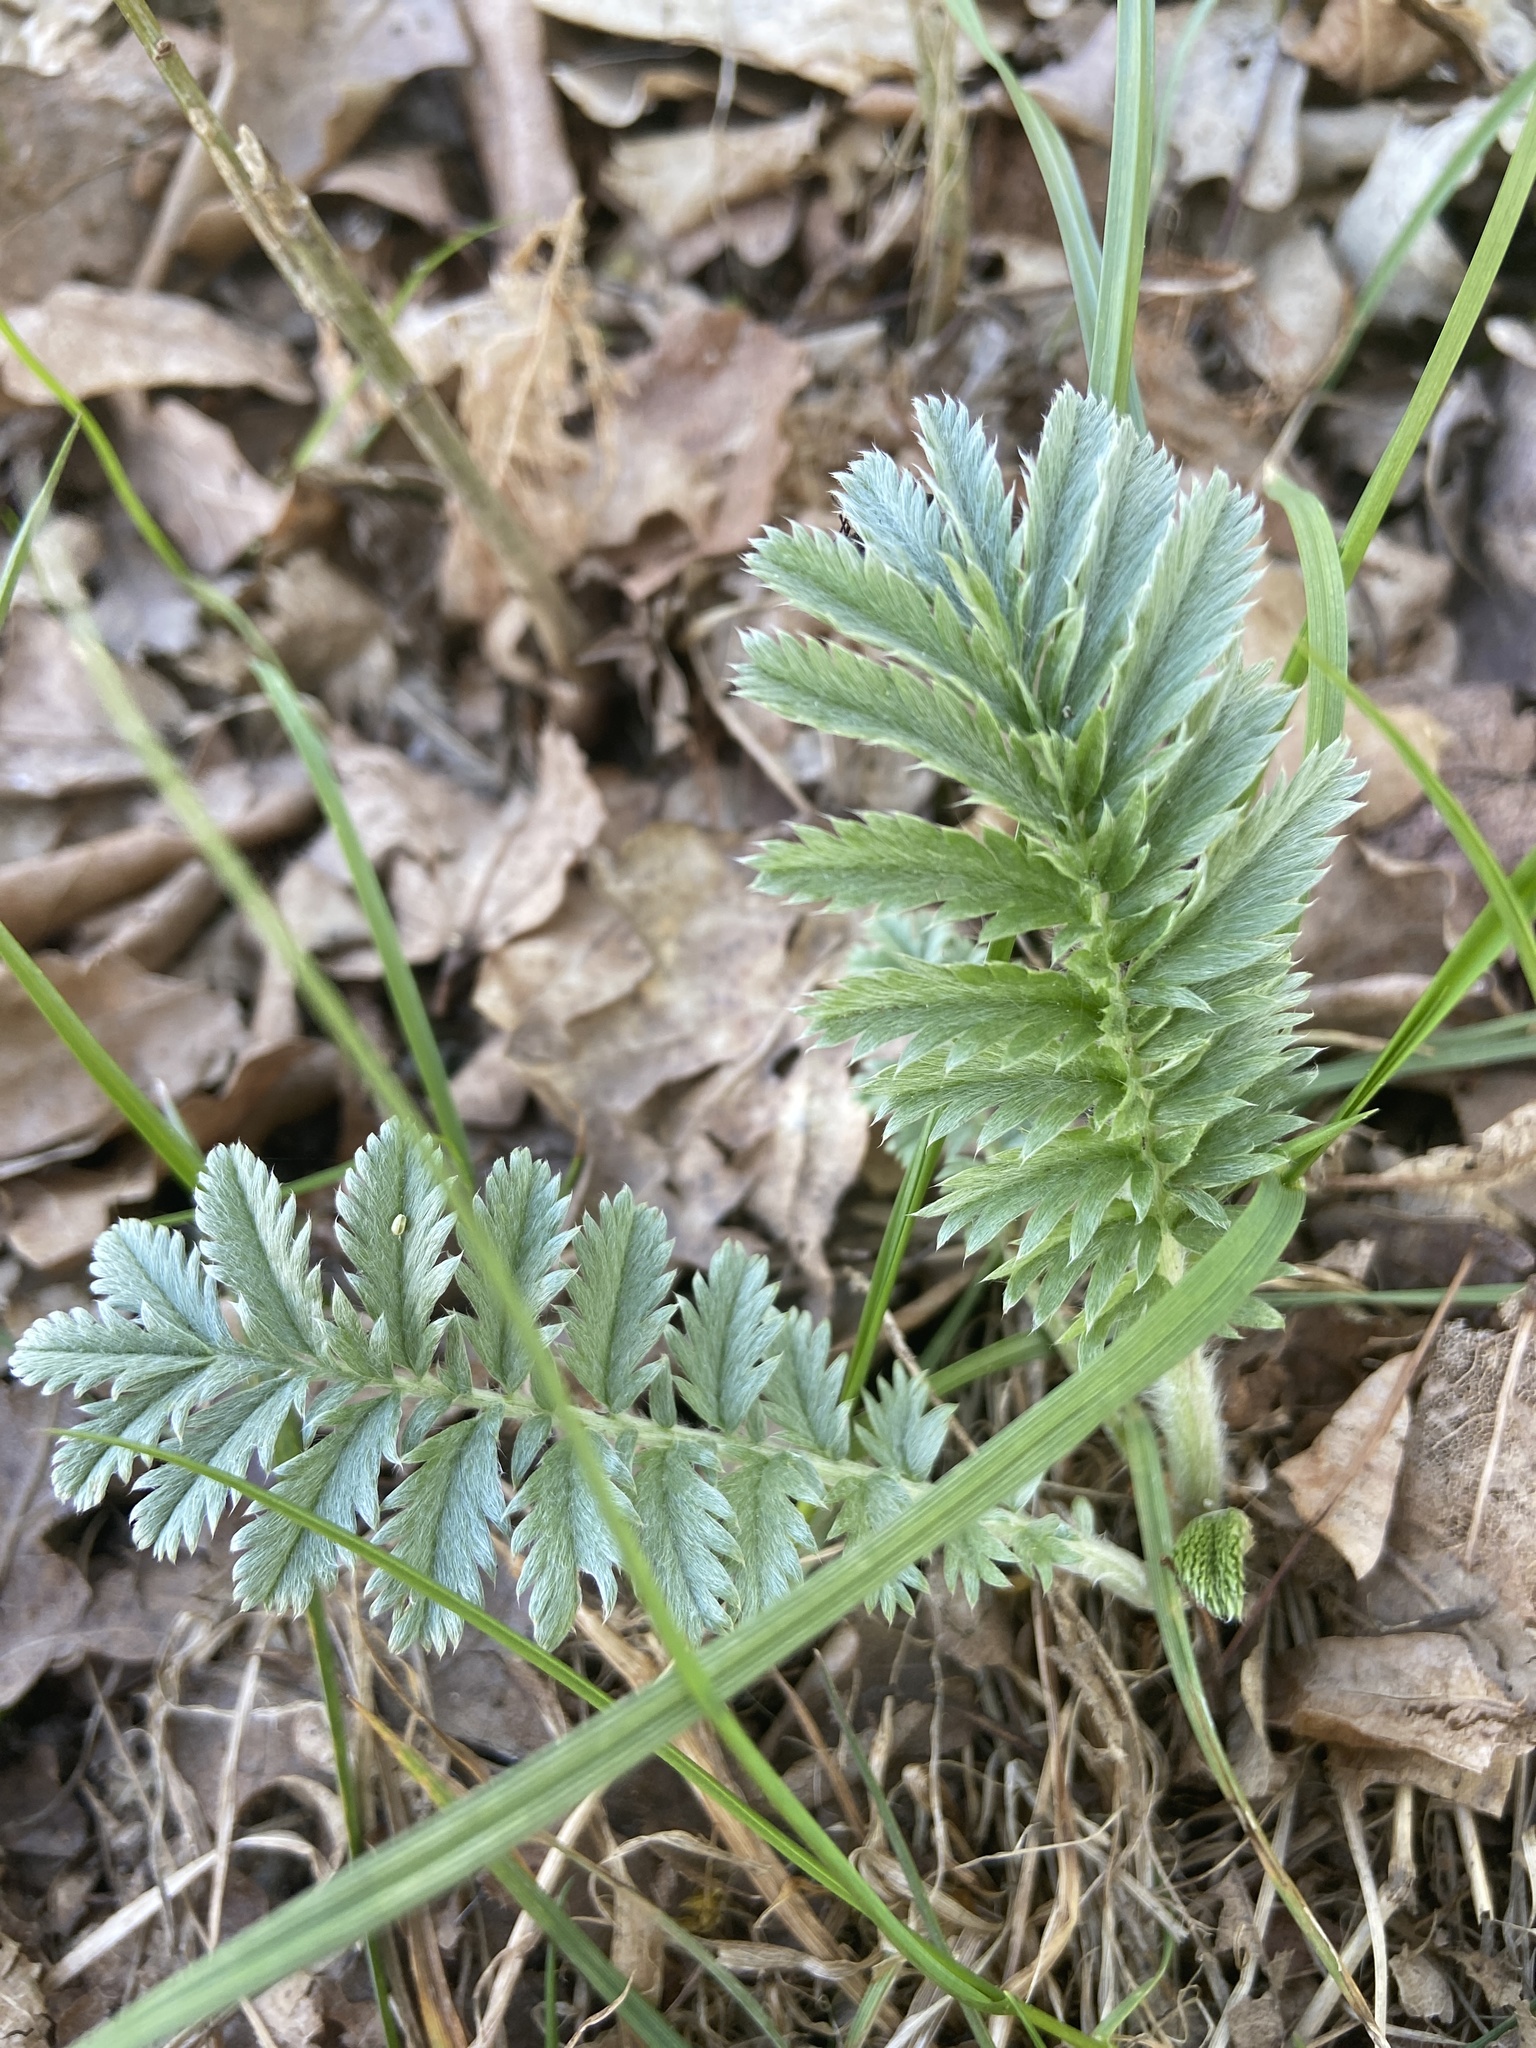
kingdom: Plantae
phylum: Tracheophyta
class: Magnoliopsida
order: Rosales
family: Rosaceae
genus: Argentina
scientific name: Argentina anserina
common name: Common silverweed
